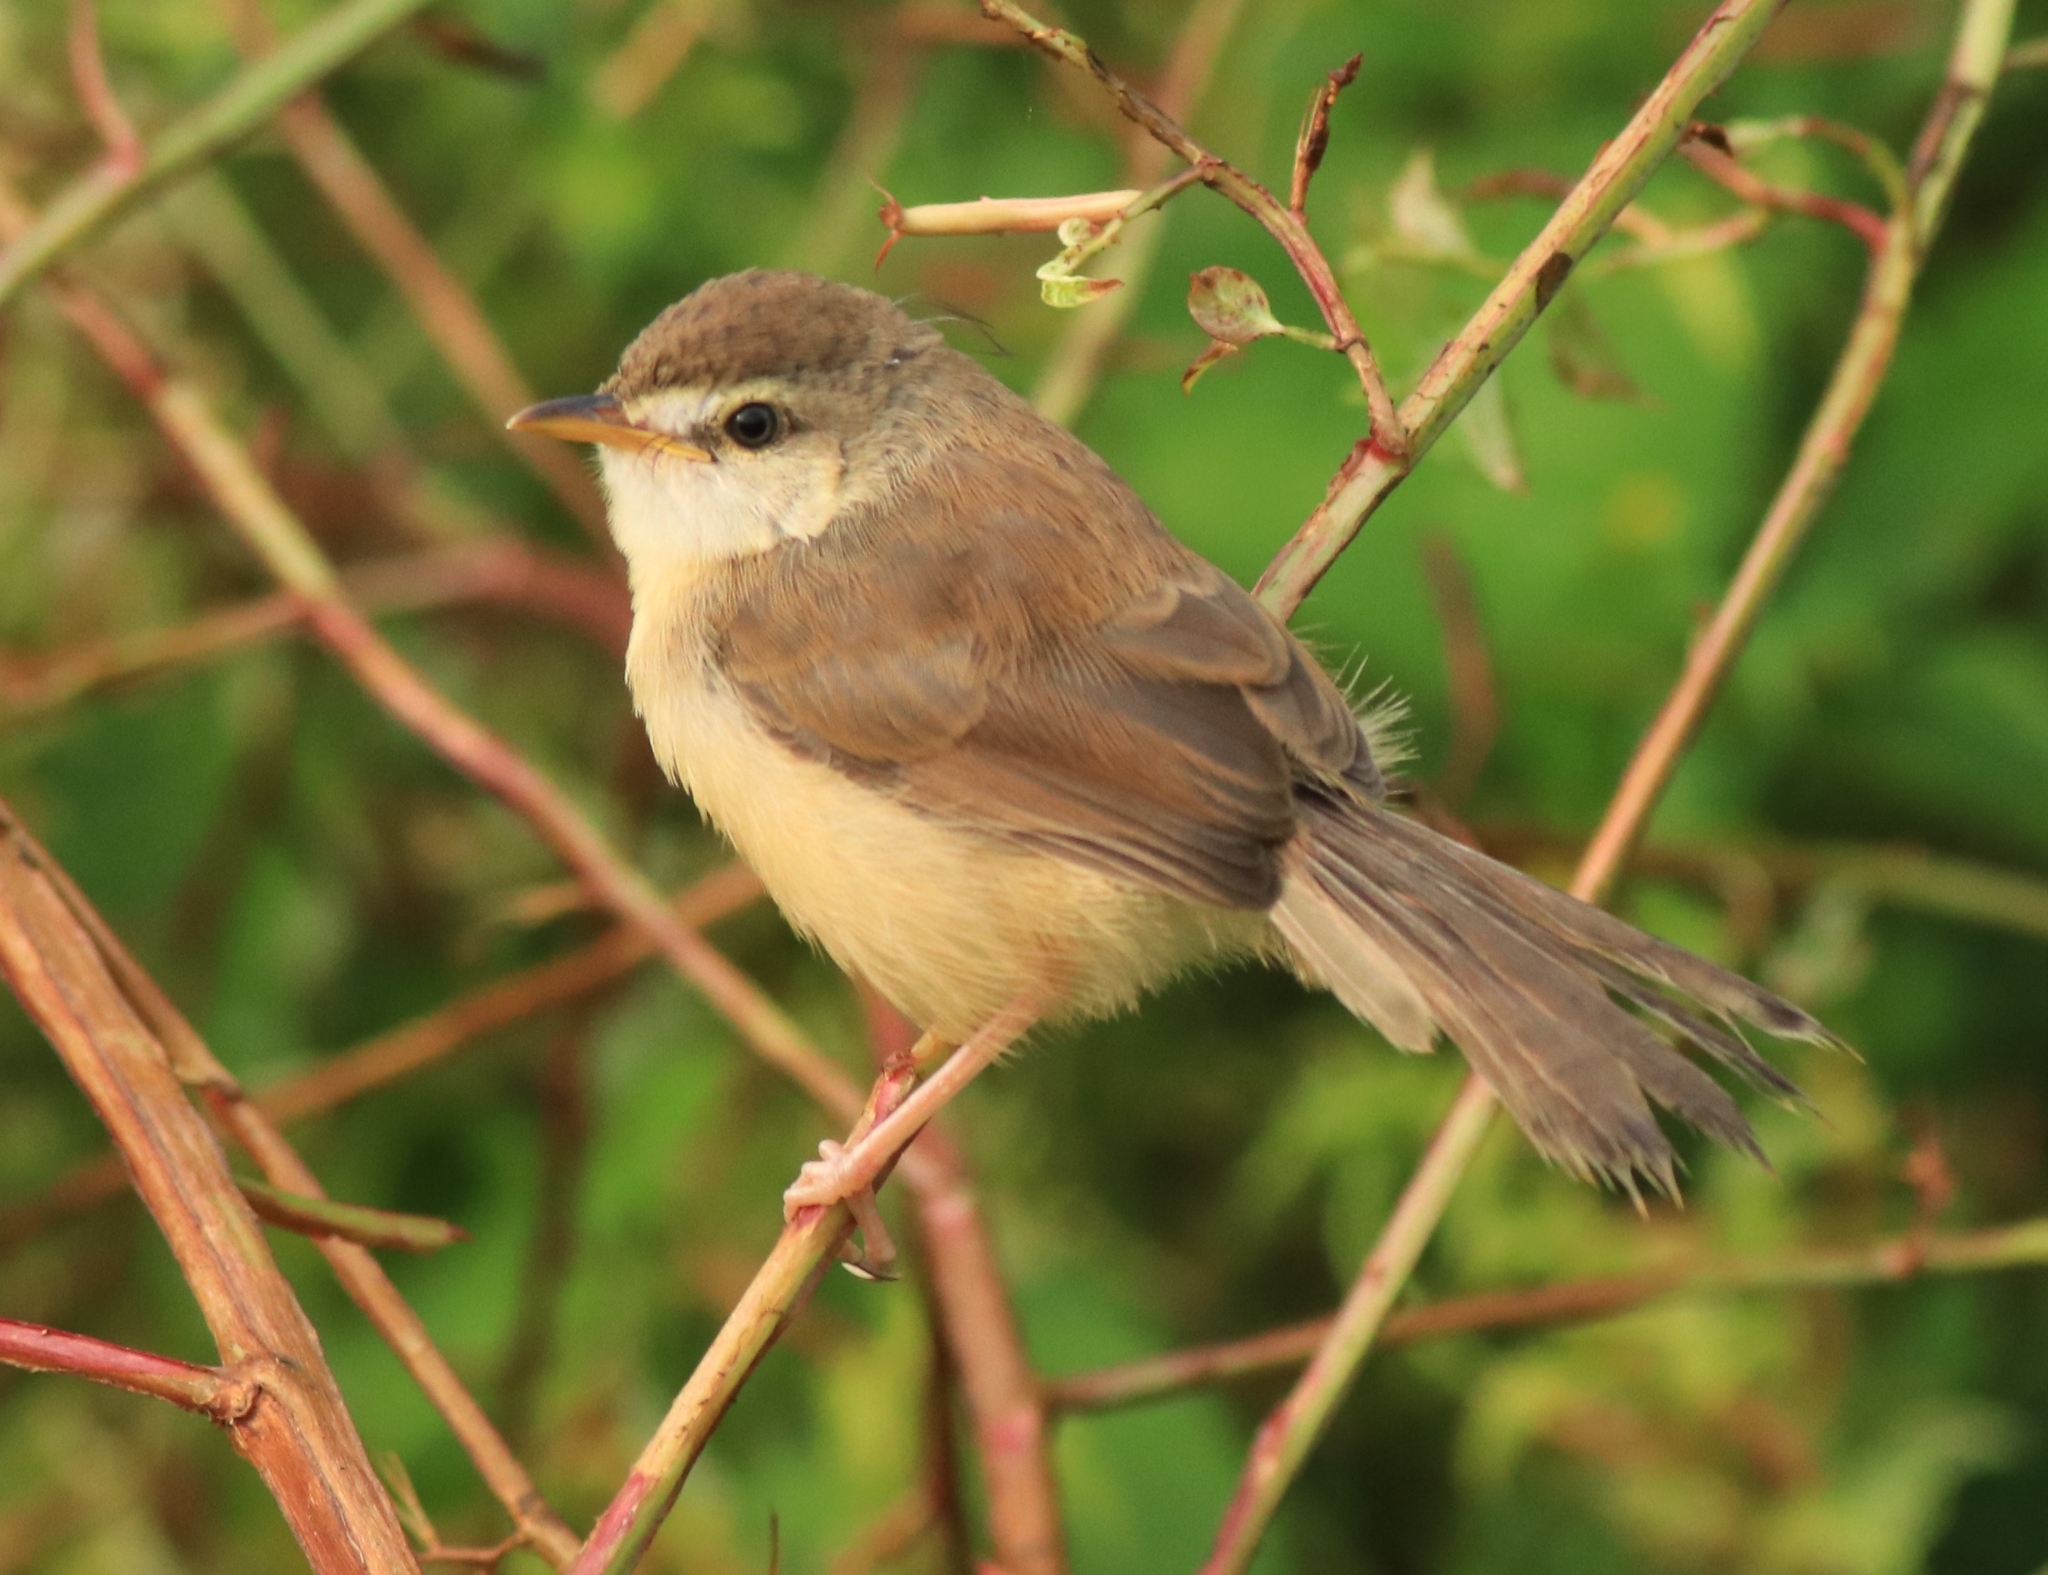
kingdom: Animalia
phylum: Chordata
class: Aves
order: Passeriformes
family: Cisticolidae
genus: Prinia
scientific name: Prinia inornata
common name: Plain prinia
